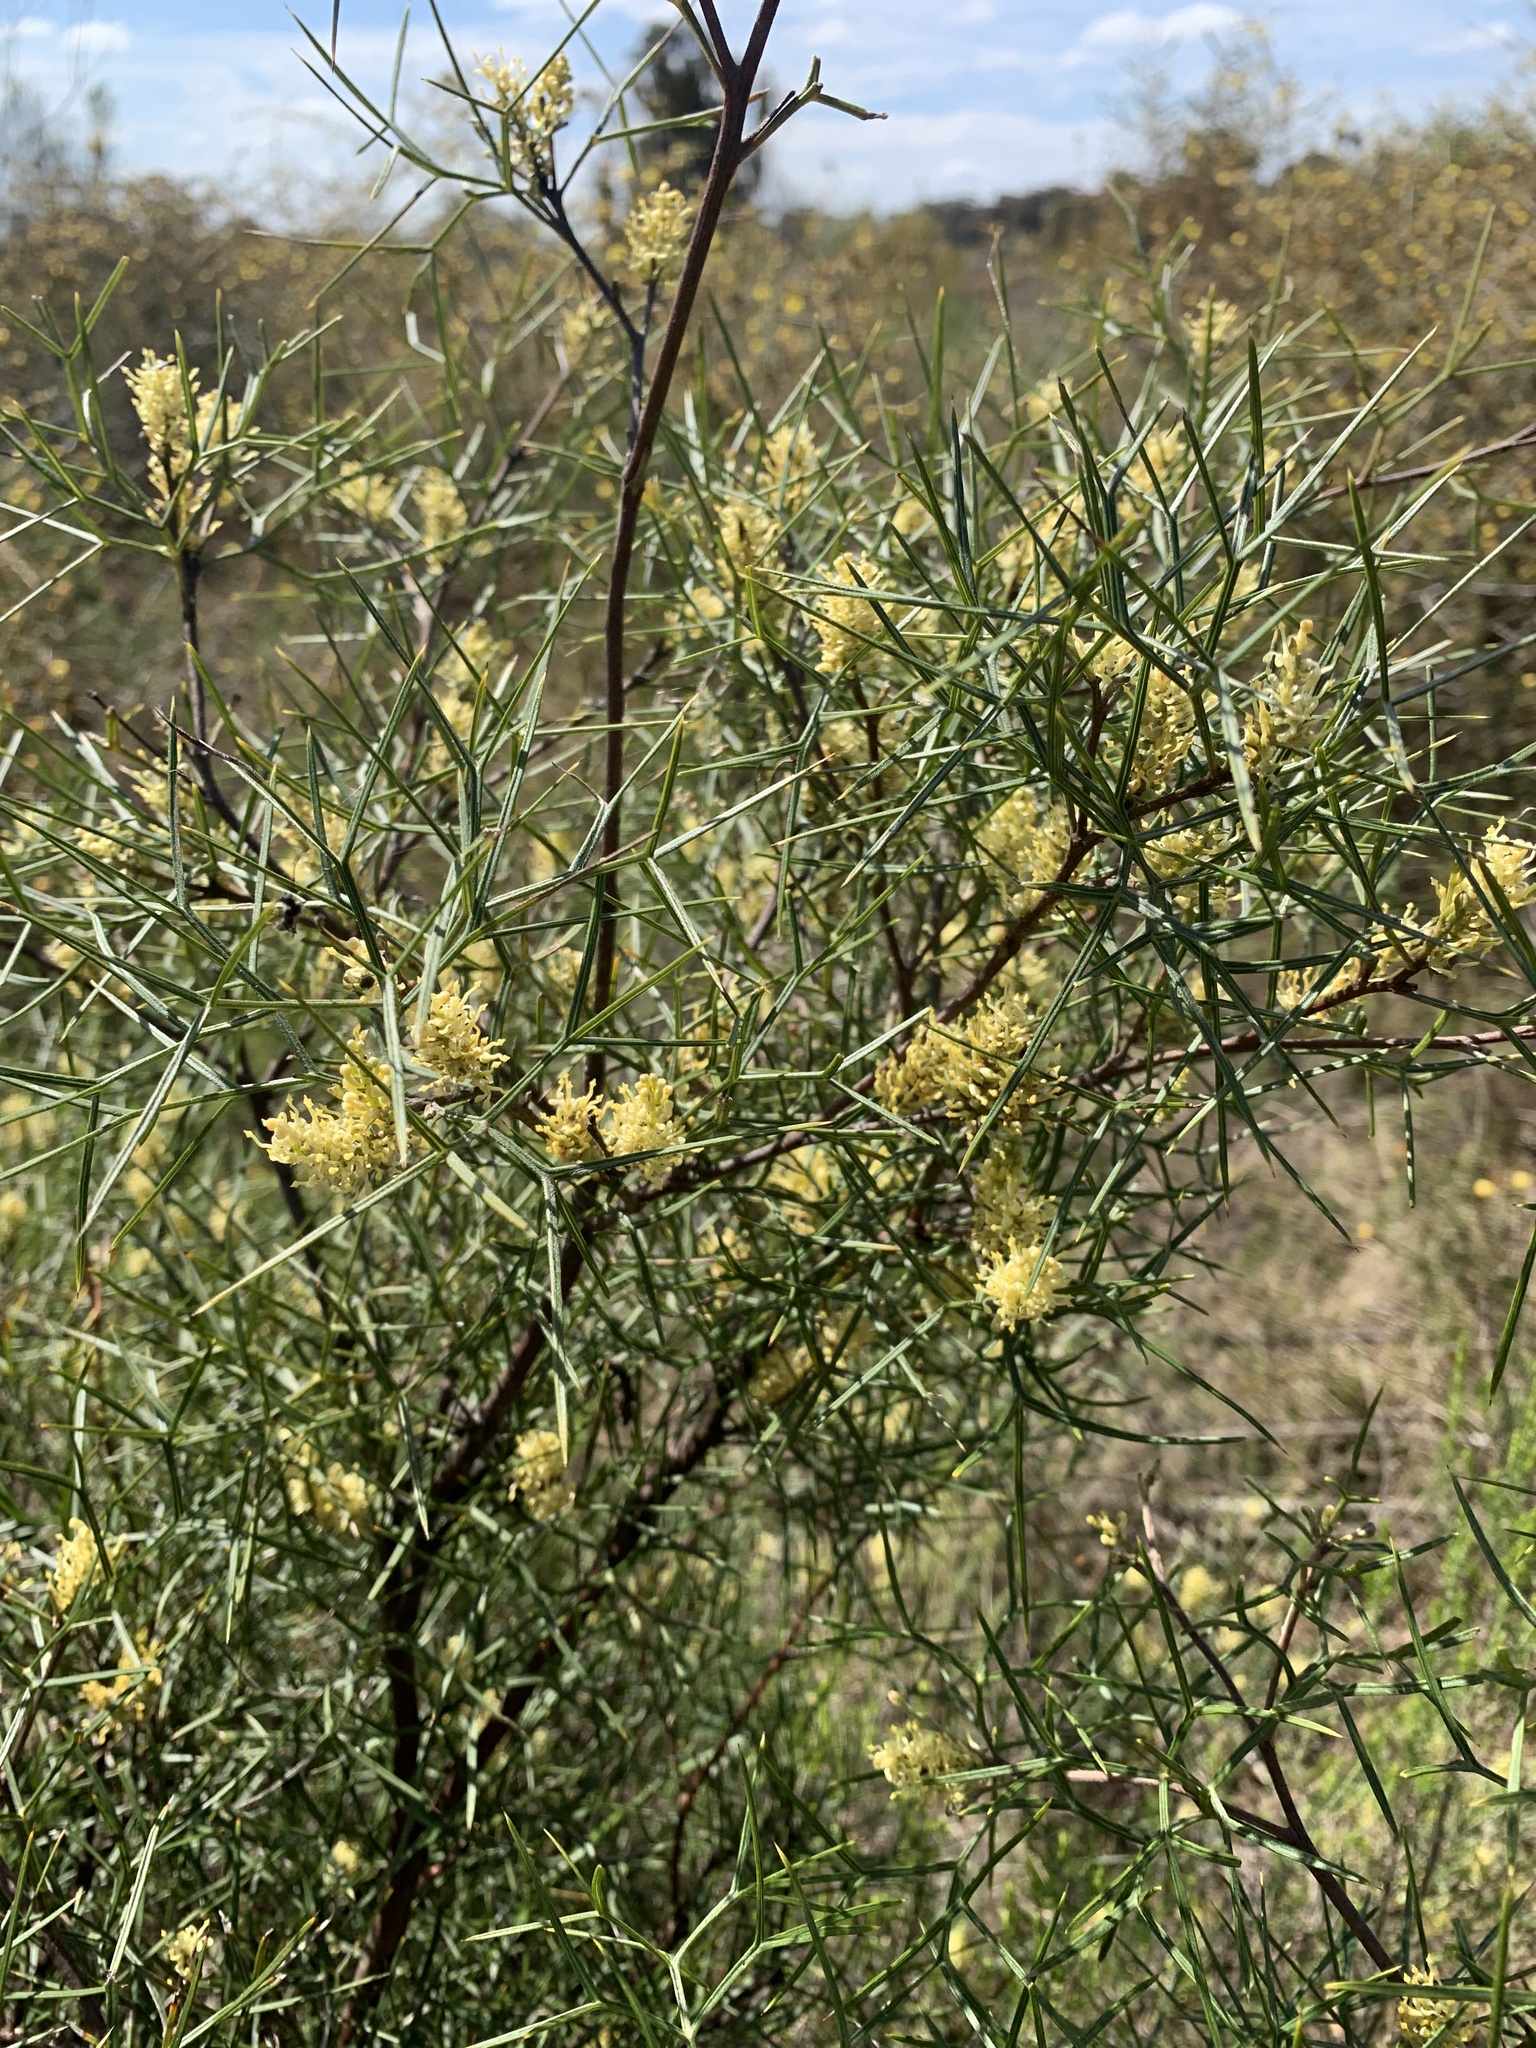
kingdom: Plantae
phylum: Tracheophyta
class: Magnoliopsida
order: Proteales
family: Proteaceae
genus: Grevillea
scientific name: Grevillea triternata
